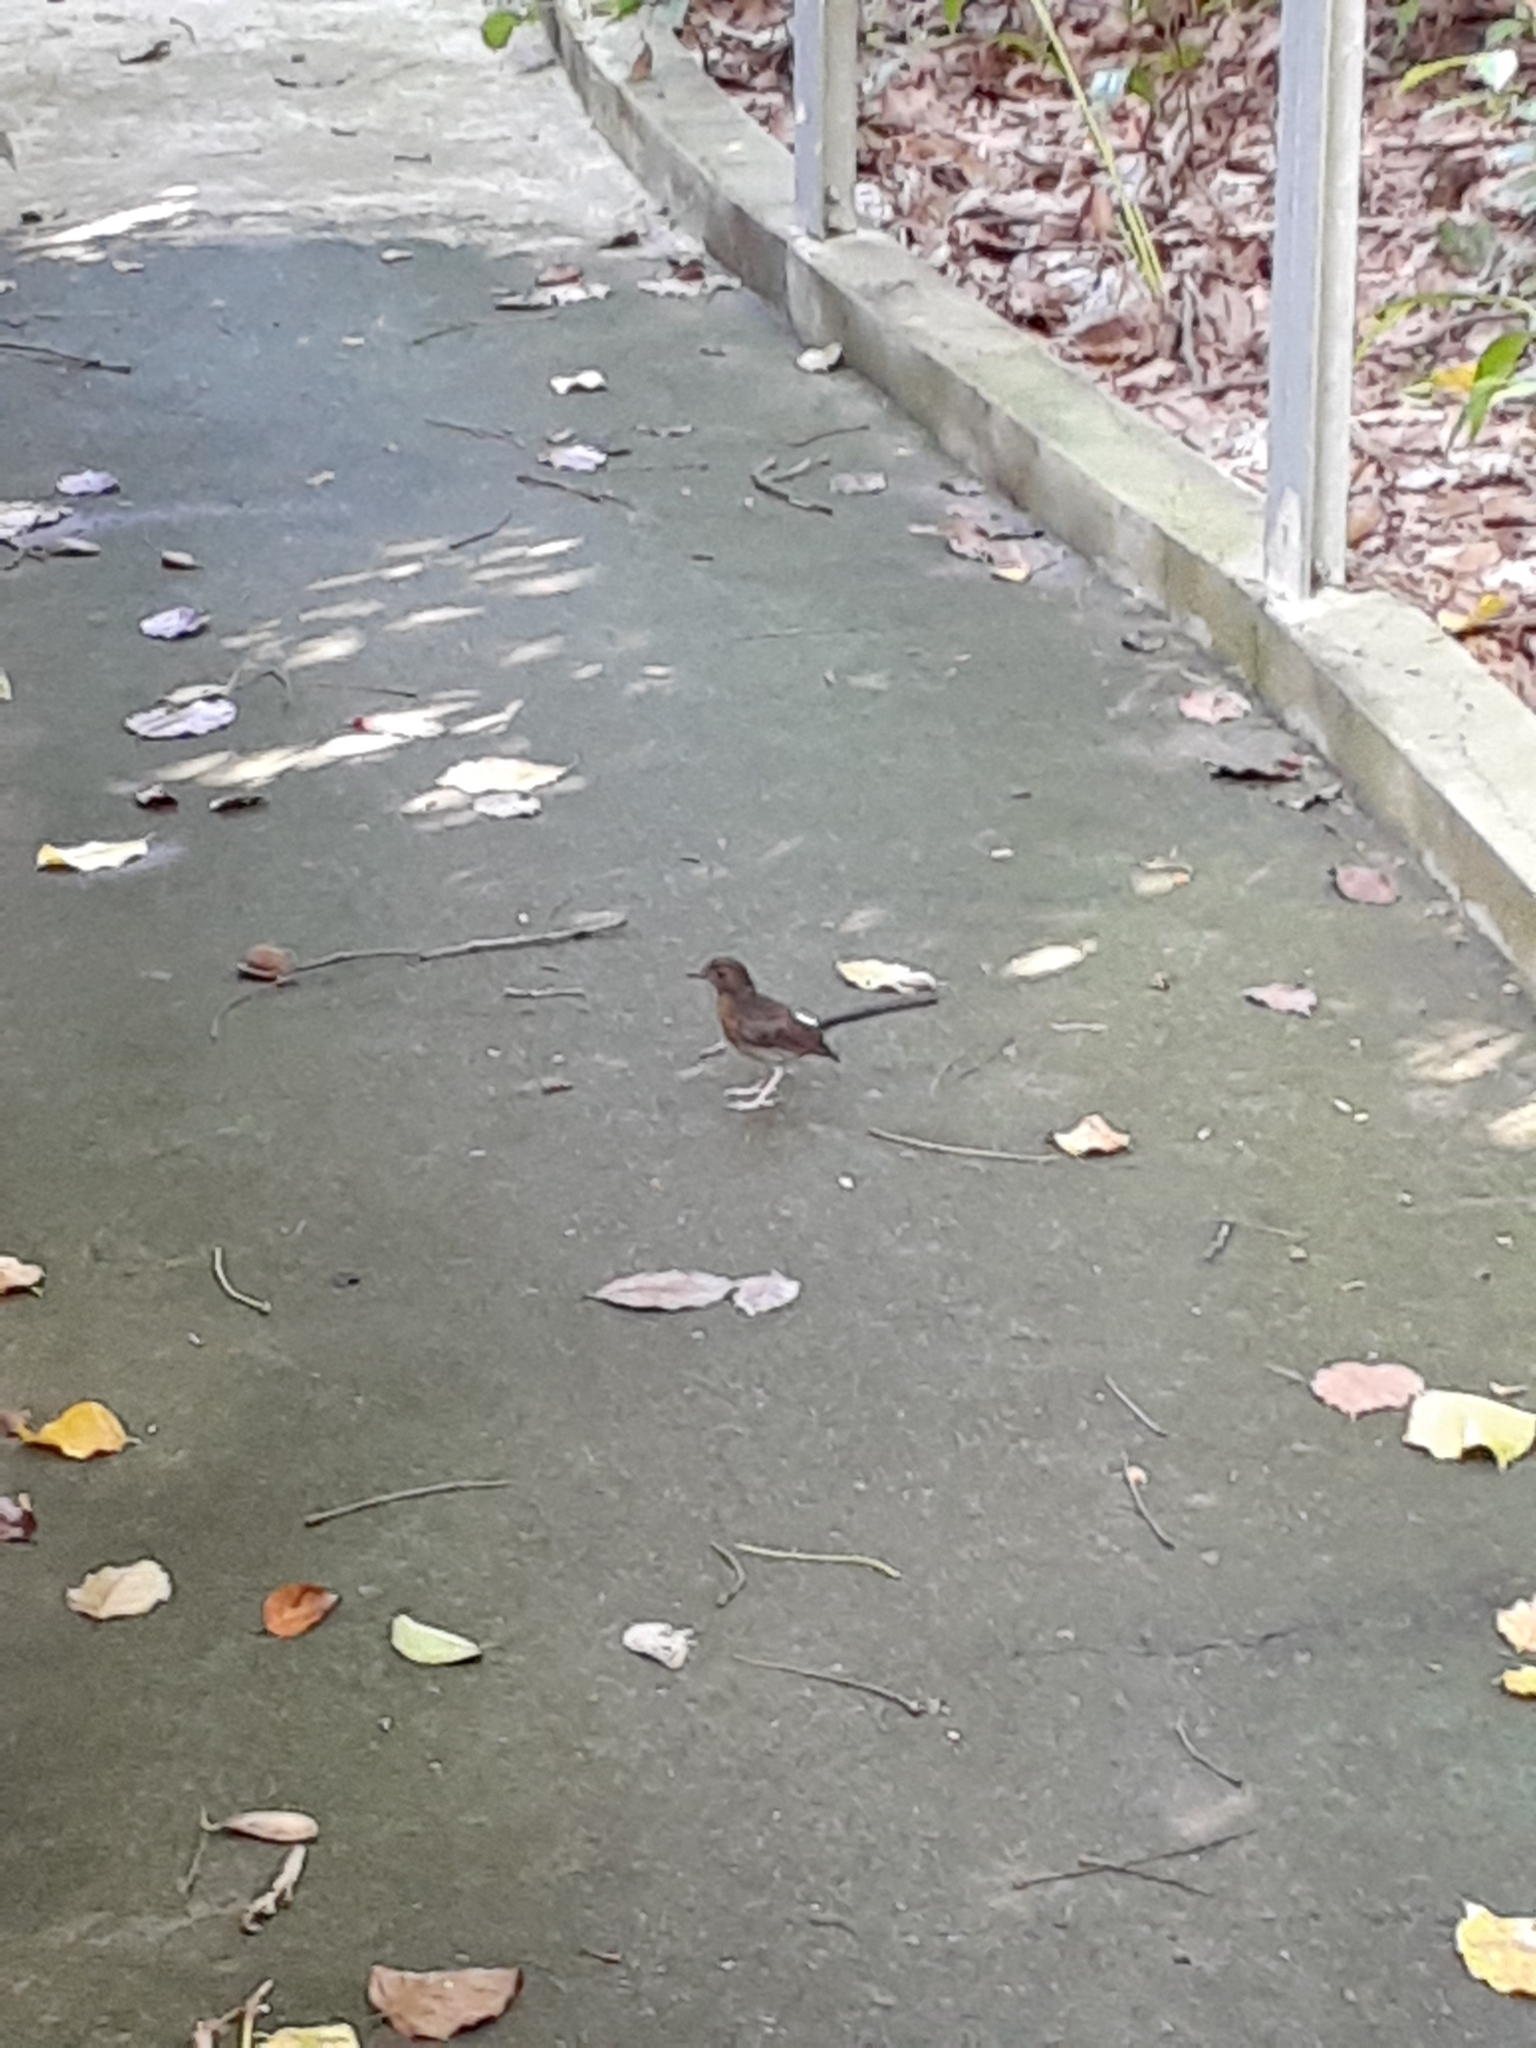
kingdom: Animalia
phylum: Chordata
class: Aves
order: Passeriformes
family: Muscicapidae
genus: Copsychus
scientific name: Copsychus malabaricus
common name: White-rumped shama
